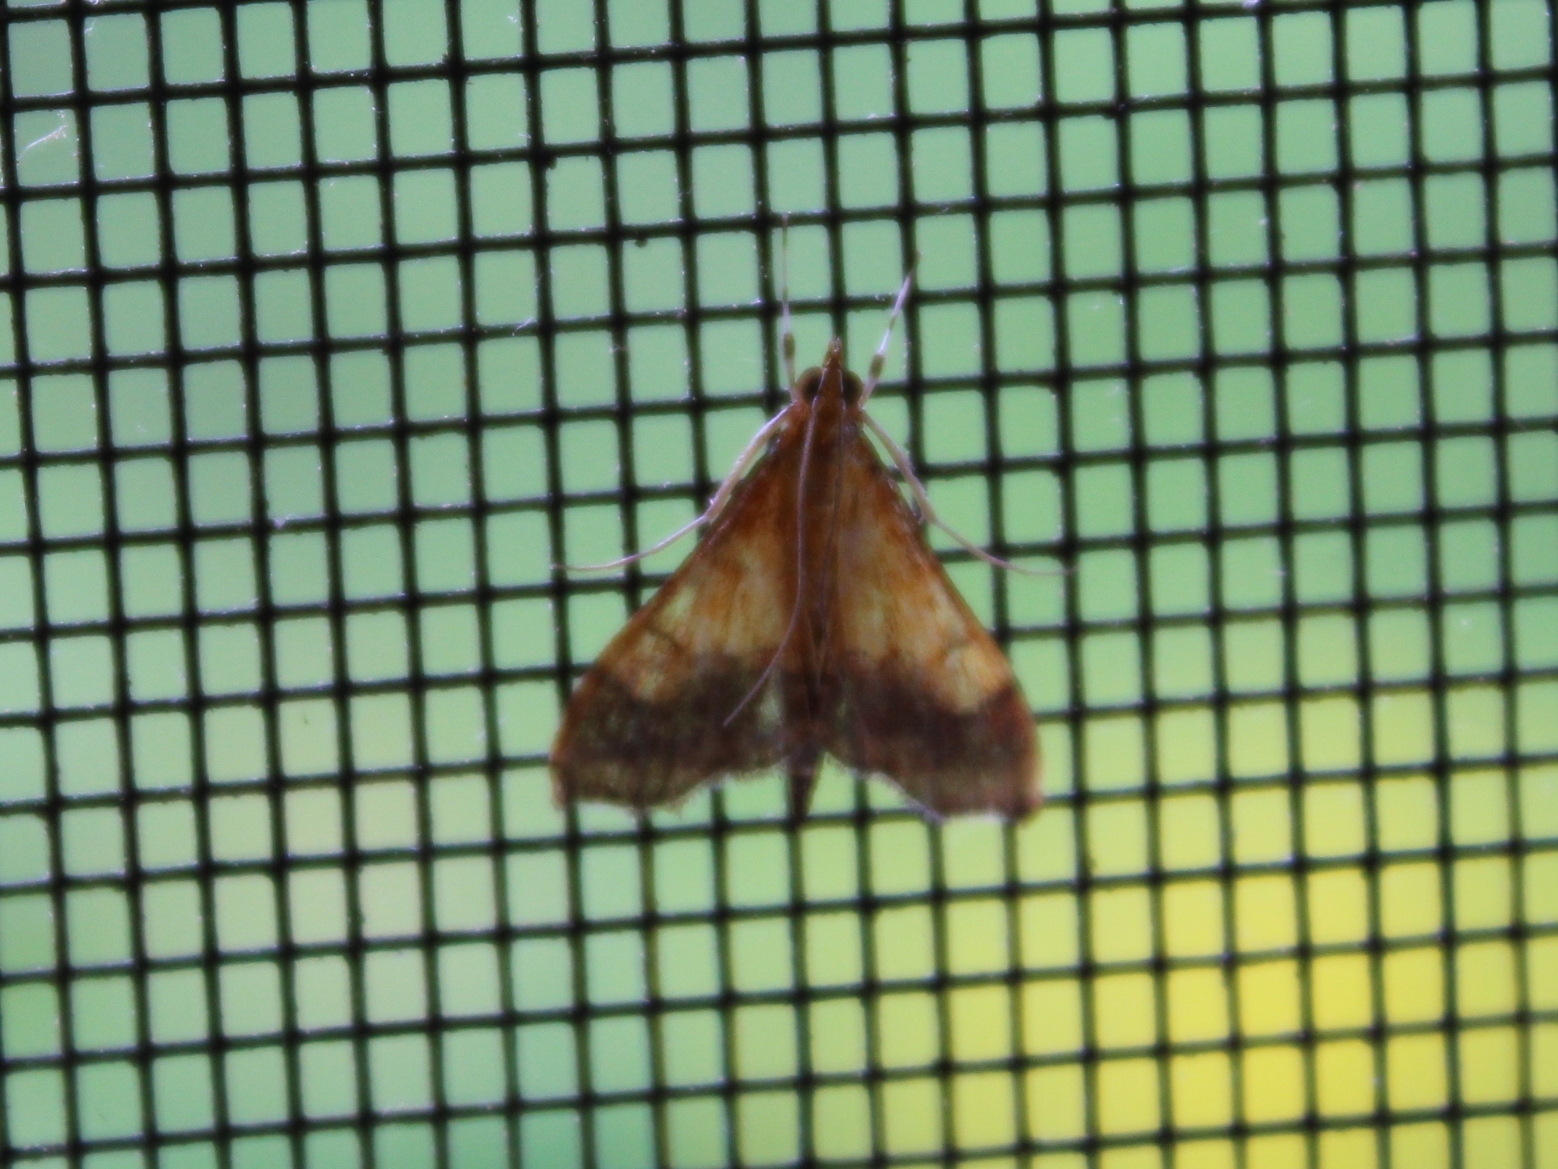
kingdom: Animalia
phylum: Arthropoda
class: Insecta
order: Lepidoptera
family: Crambidae
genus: Pyrausta
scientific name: Pyrausta bicoloralis
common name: Bicolored pyrausta moth
